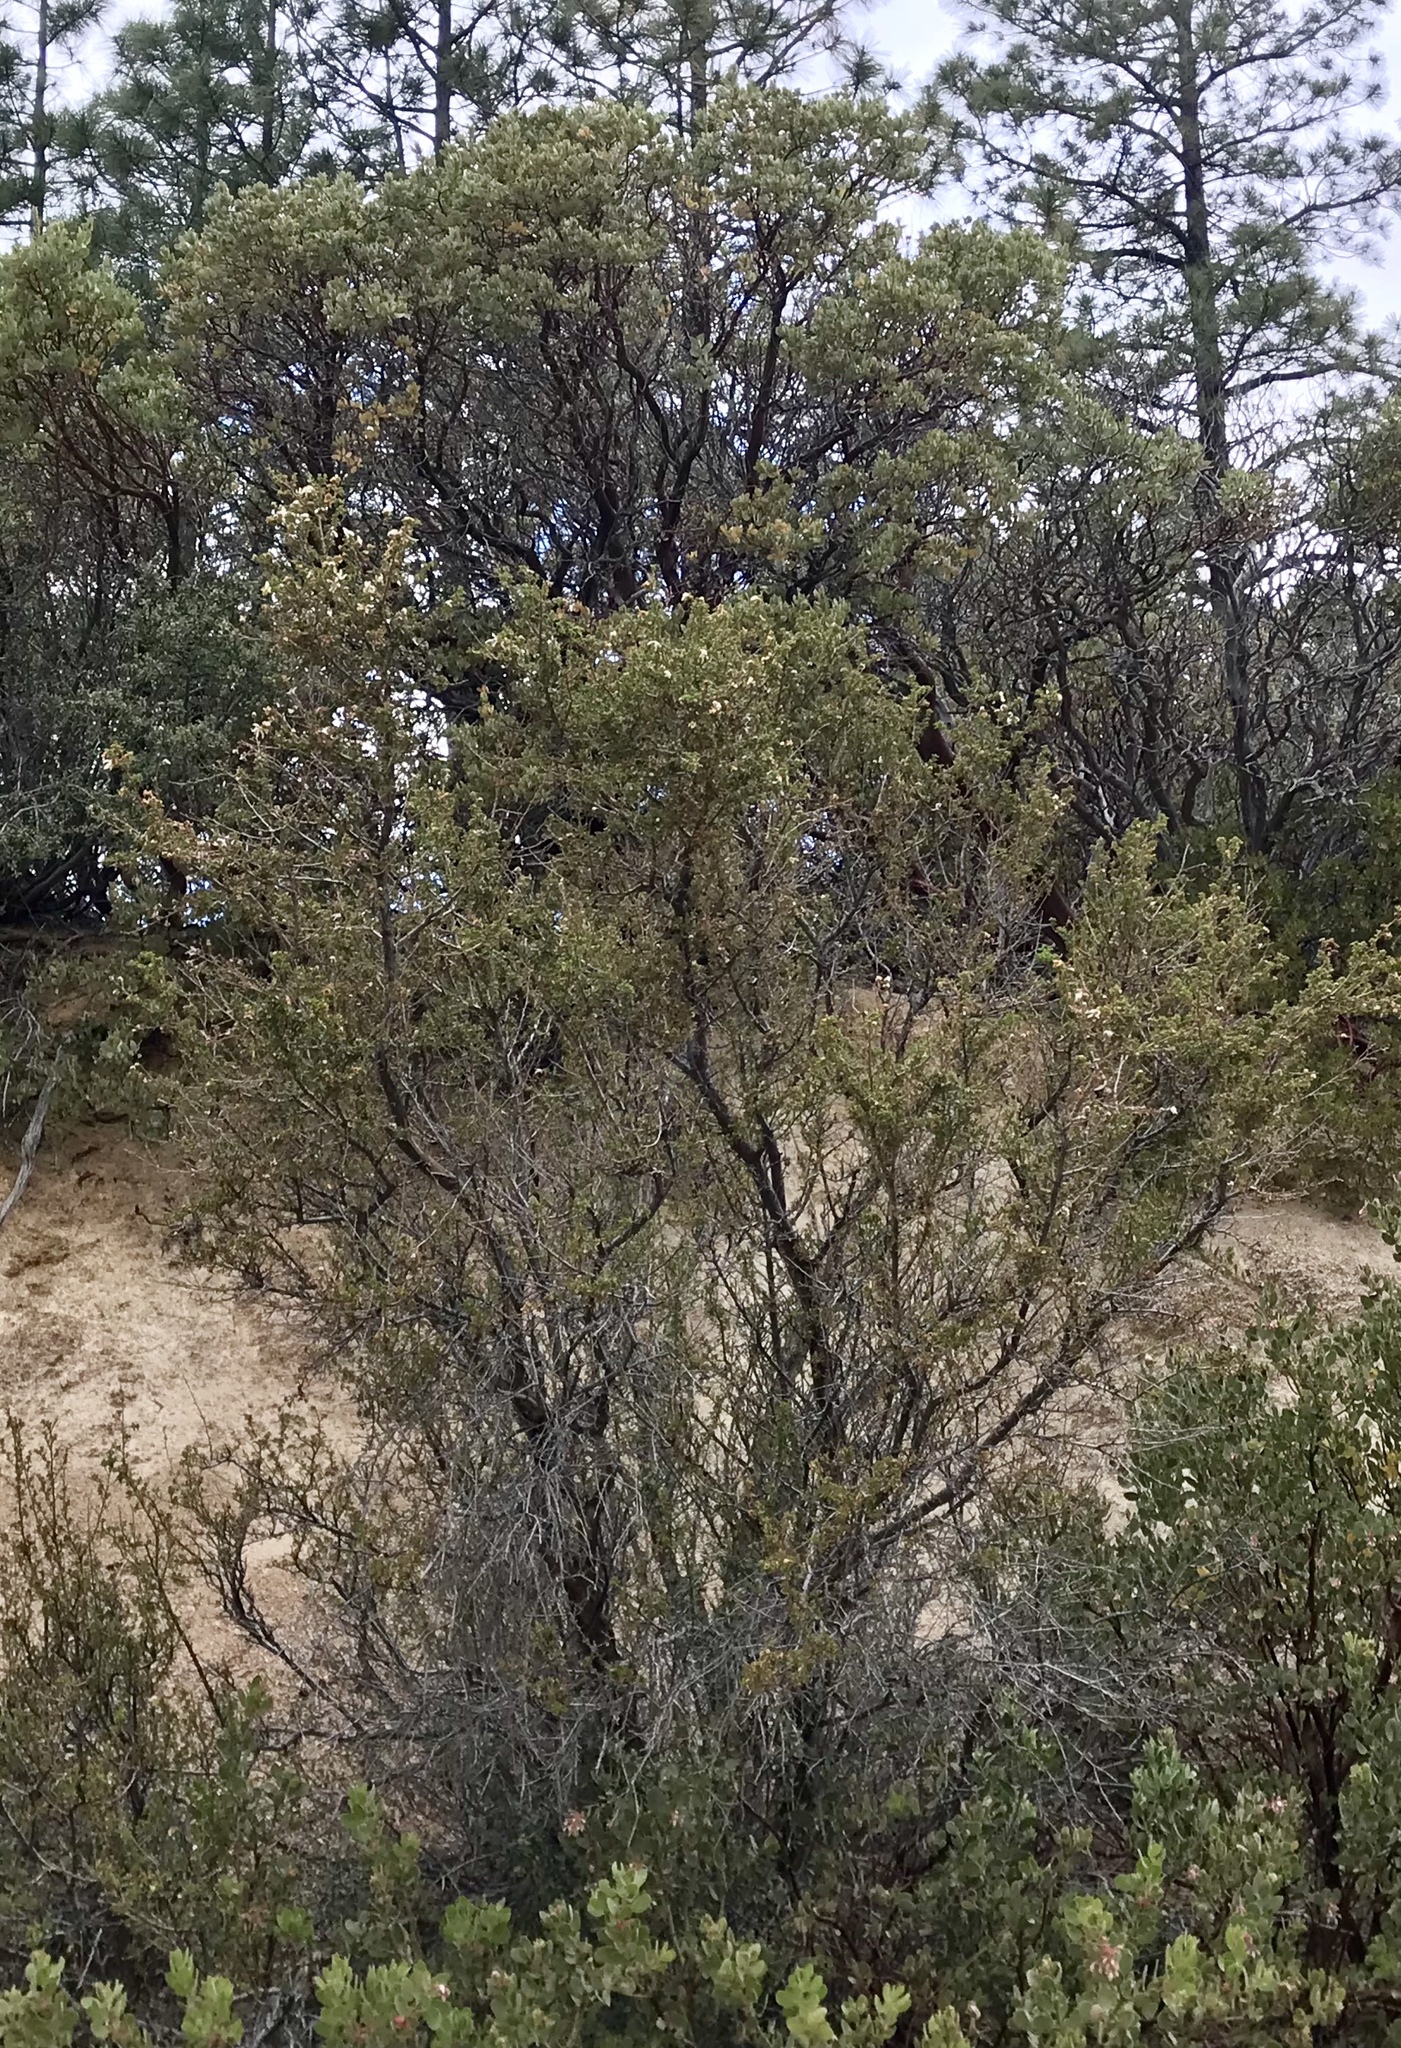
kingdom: Plantae
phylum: Tracheophyta
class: Magnoliopsida
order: Rosales
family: Rosaceae
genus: Purshia
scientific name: Purshia stansburiana
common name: Stansbury's cliffrose
